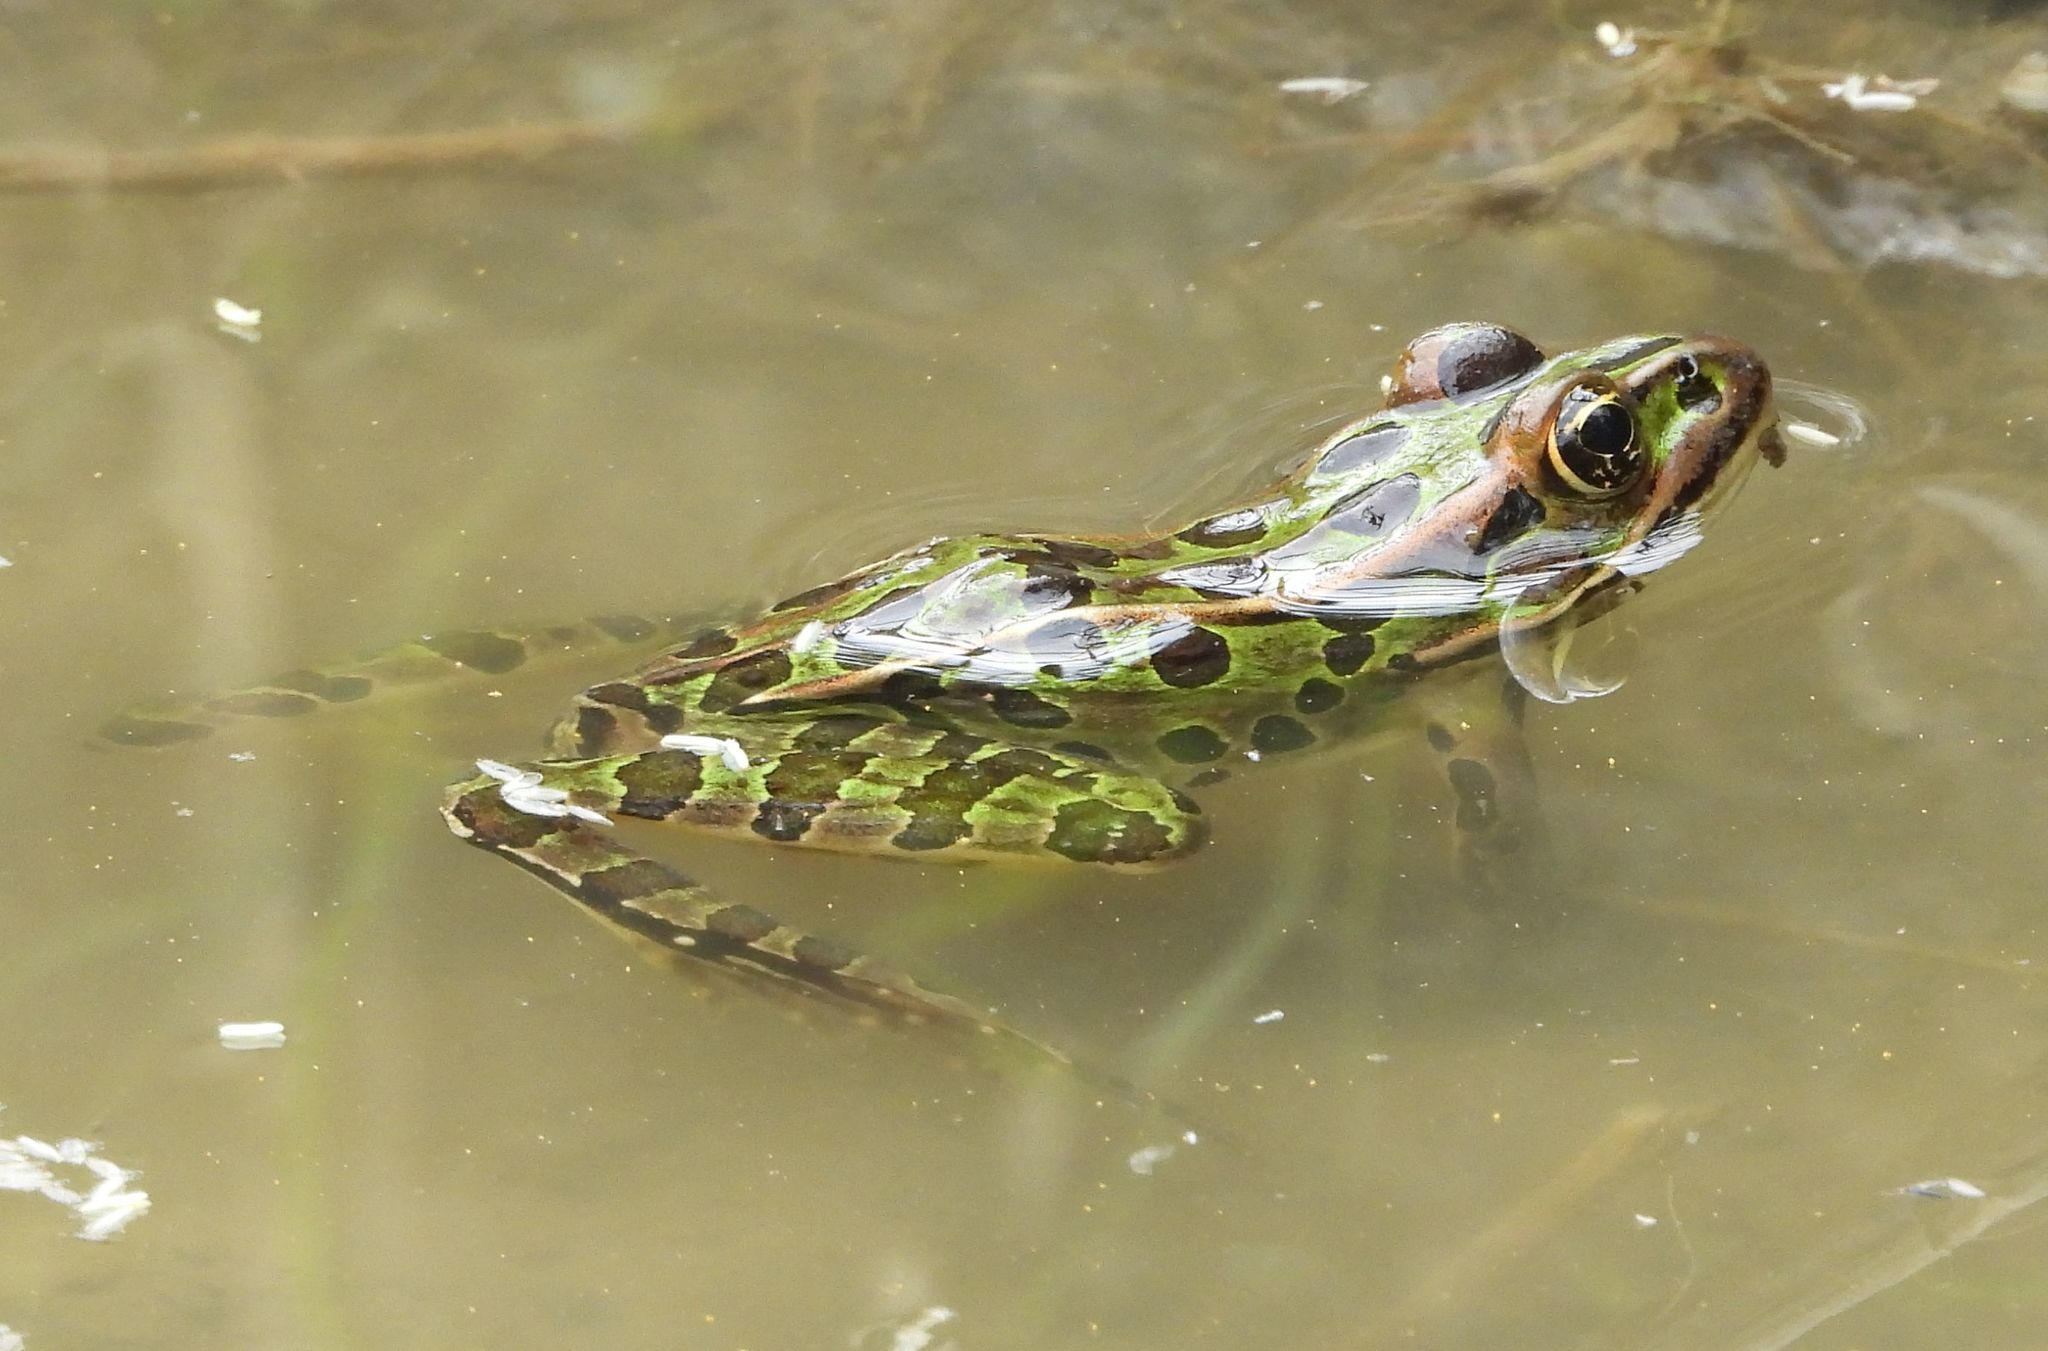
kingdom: Animalia
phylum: Chordata
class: Amphibia
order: Anura
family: Ranidae
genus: Lithobates
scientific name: Lithobates pipiens
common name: Northern leopard frog
